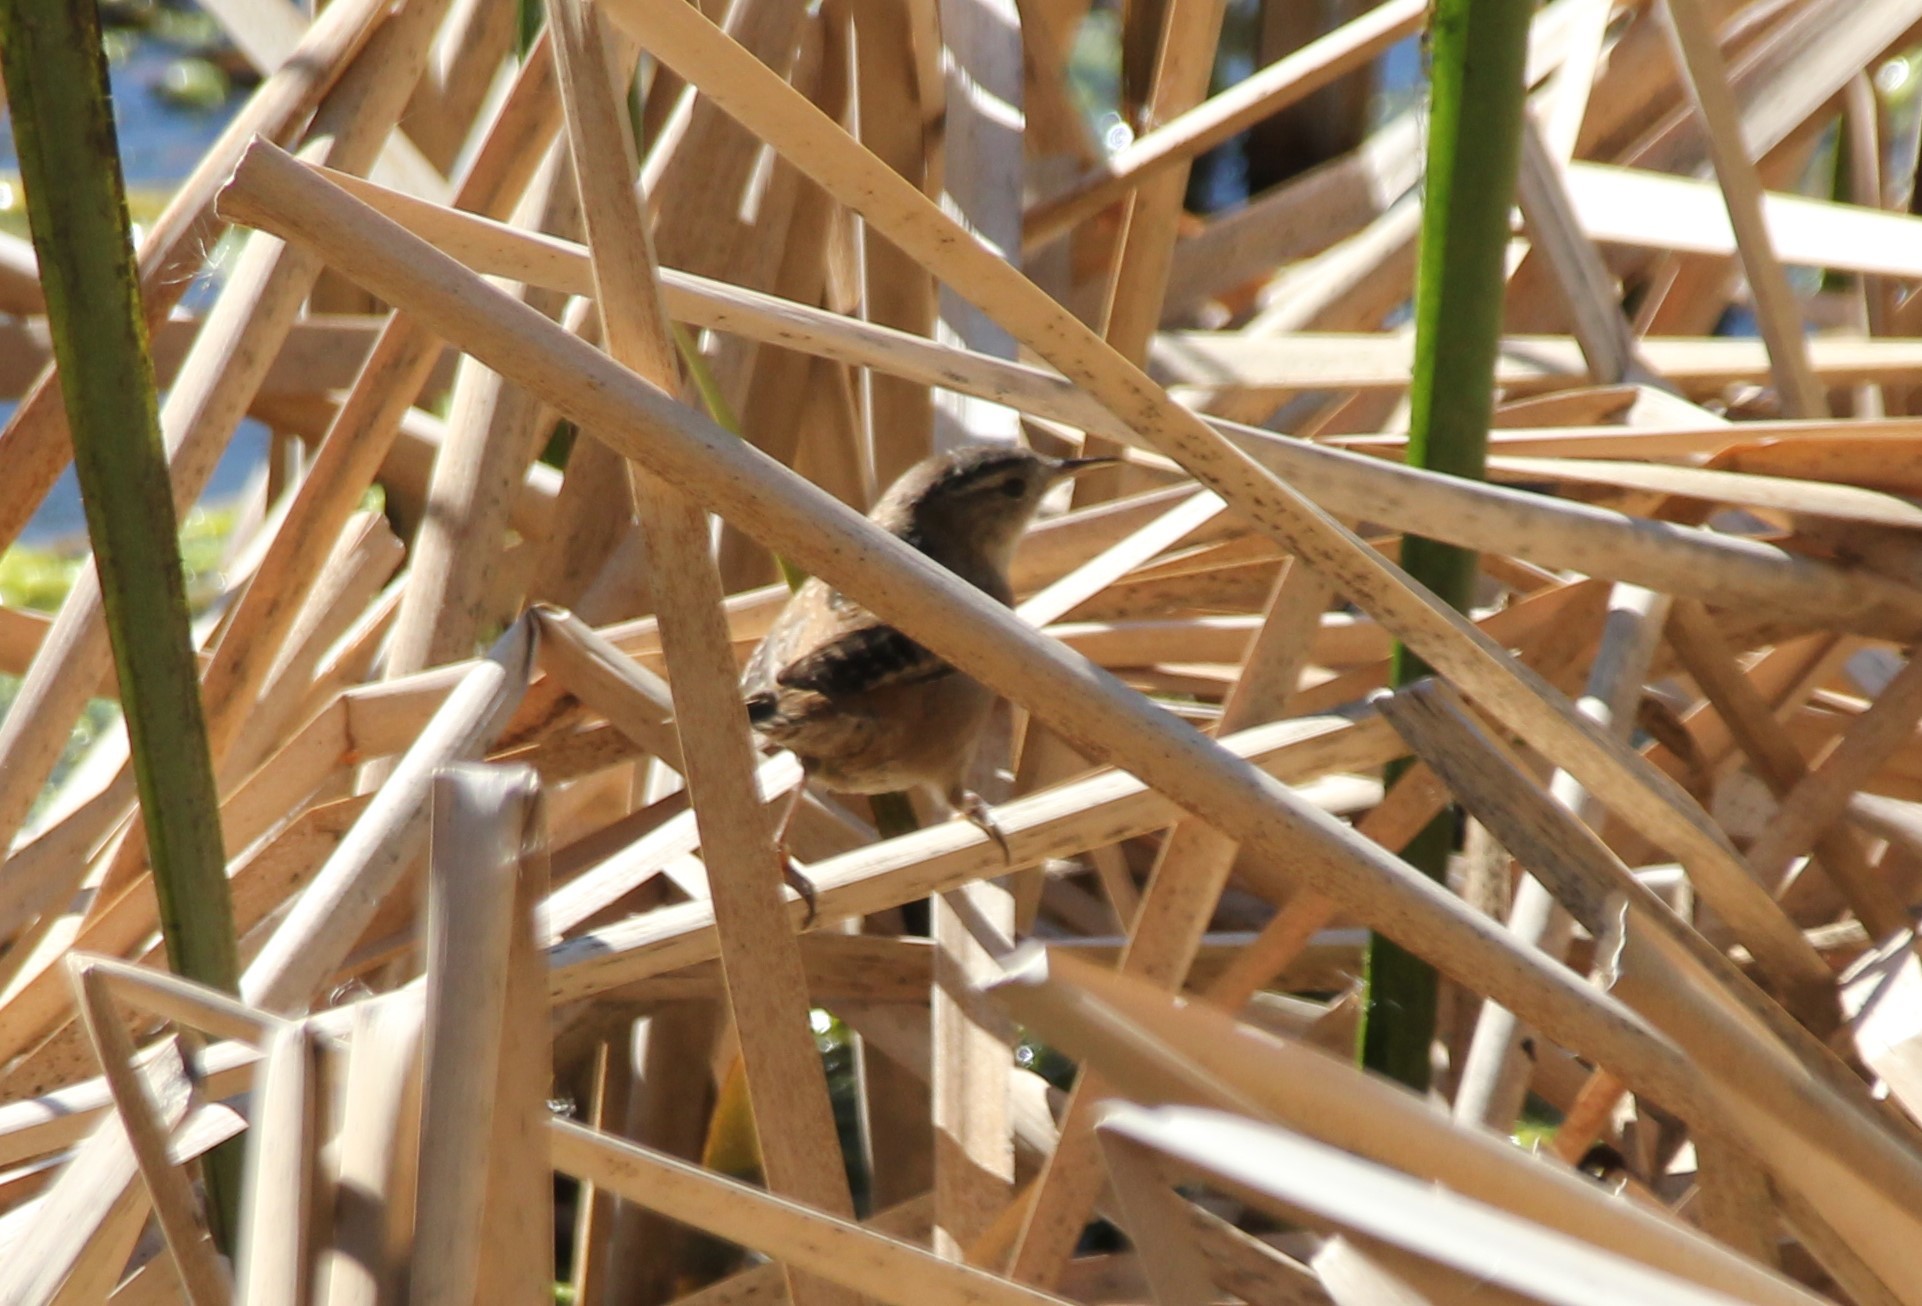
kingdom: Animalia
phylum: Chordata
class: Aves
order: Passeriformes
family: Troglodytidae
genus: Cistothorus
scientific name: Cistothorus palustris
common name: Marsh wren
